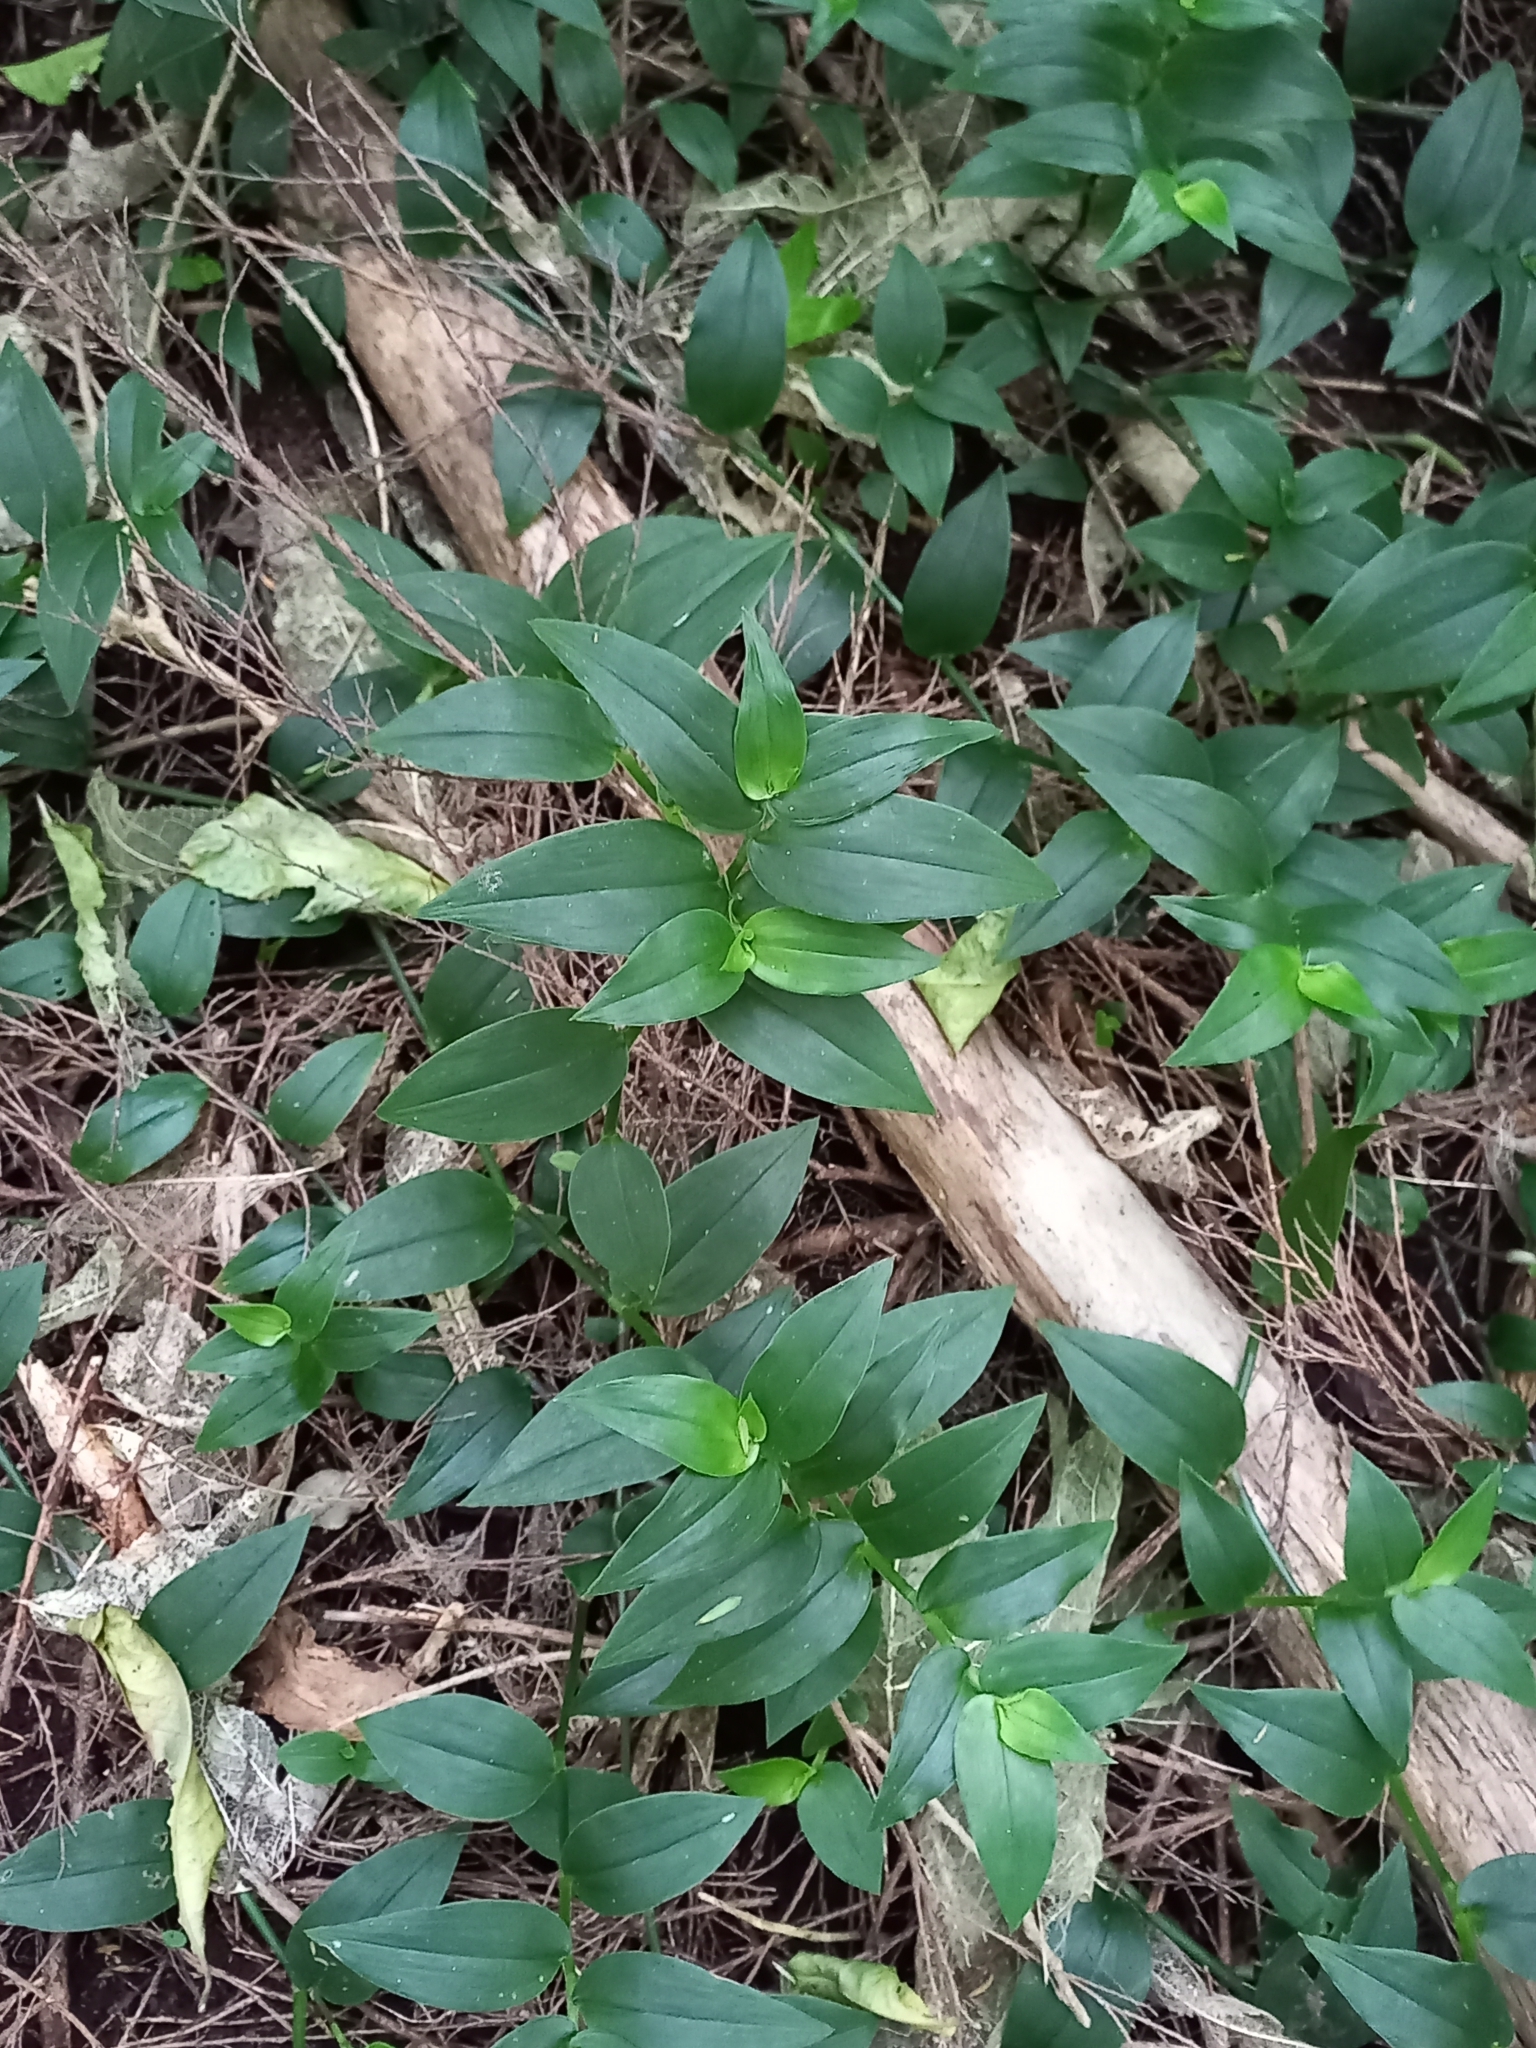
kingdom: Plantae
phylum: Tracheophyta
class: Liliopsida
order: Commelinales
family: Commelinaceae
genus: Tradescantia
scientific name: Tradescantia fluminensis
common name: Wandering-jew
